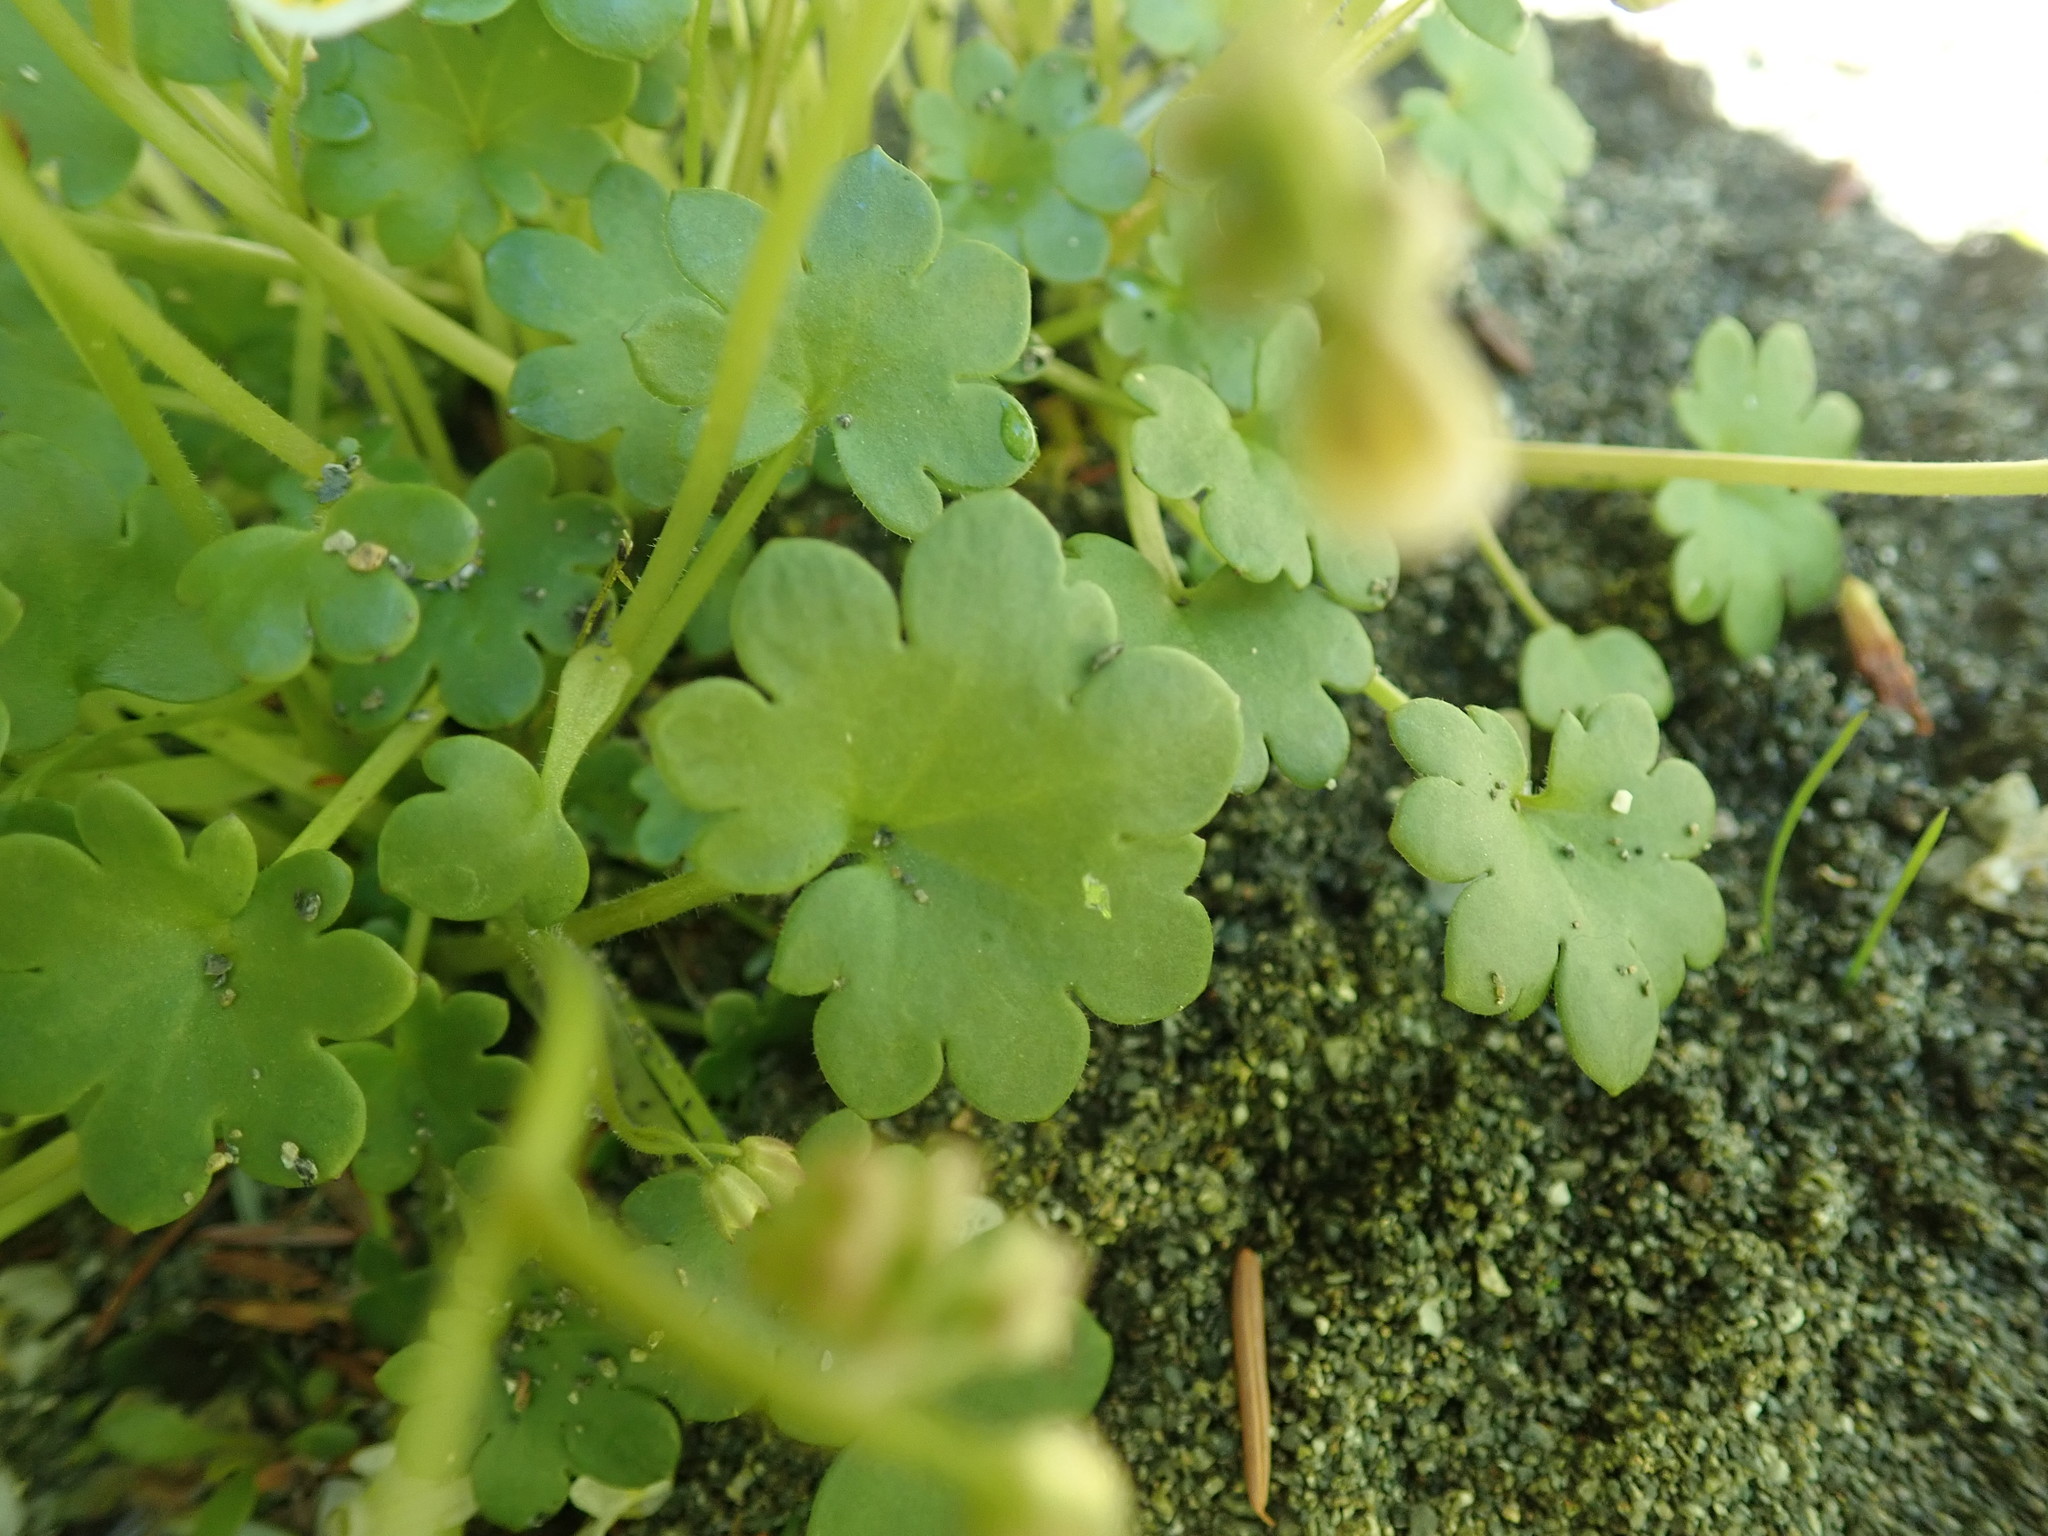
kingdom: Plantae
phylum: Tracheophyta
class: Magnoliopsida
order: Boraginales
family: Hydrophyllaceae
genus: Romanzoffia
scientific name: Romanzoffia sitchensis
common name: Sitka mistmaid
